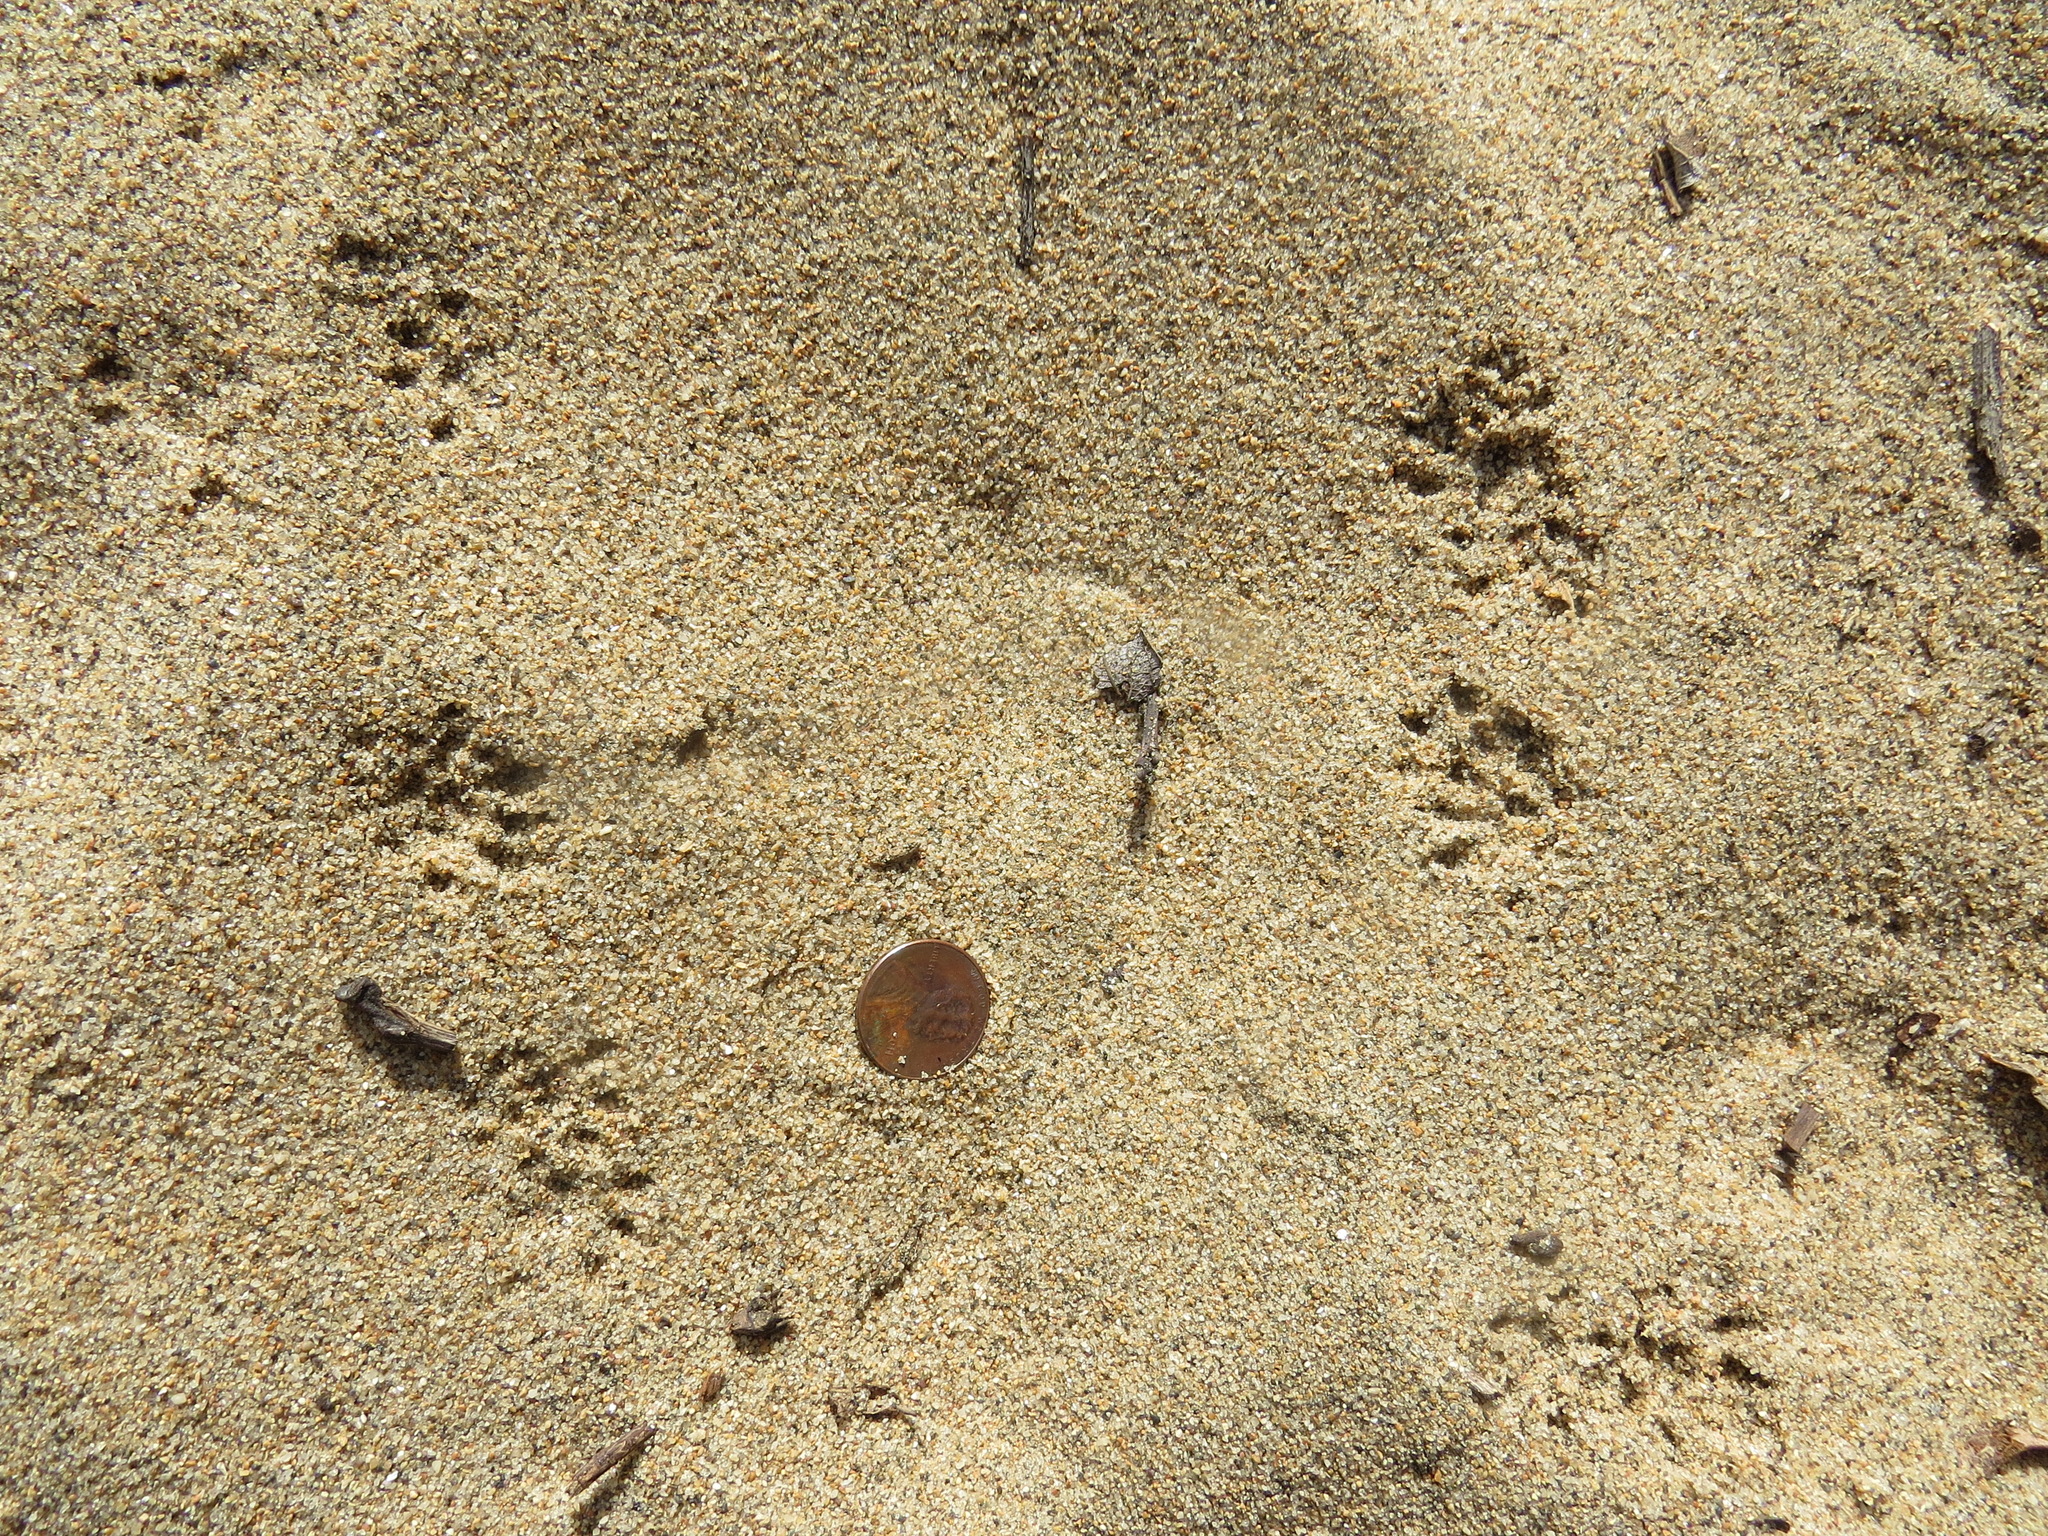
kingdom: Animalia
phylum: Chordata
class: Mammalia
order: Rodentia
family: Cricetidae
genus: Neotoma
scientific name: Neotoma fuscipes
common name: Dusky-footed woodrat
